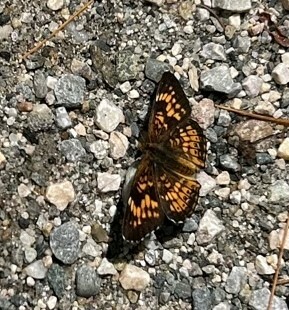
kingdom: Animalia
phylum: Arthropoda
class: Insecta
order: Lepidoptera
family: Nymphalidae
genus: Chlosyne
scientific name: Chlosyne harrisii
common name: Harris's checkerspot
